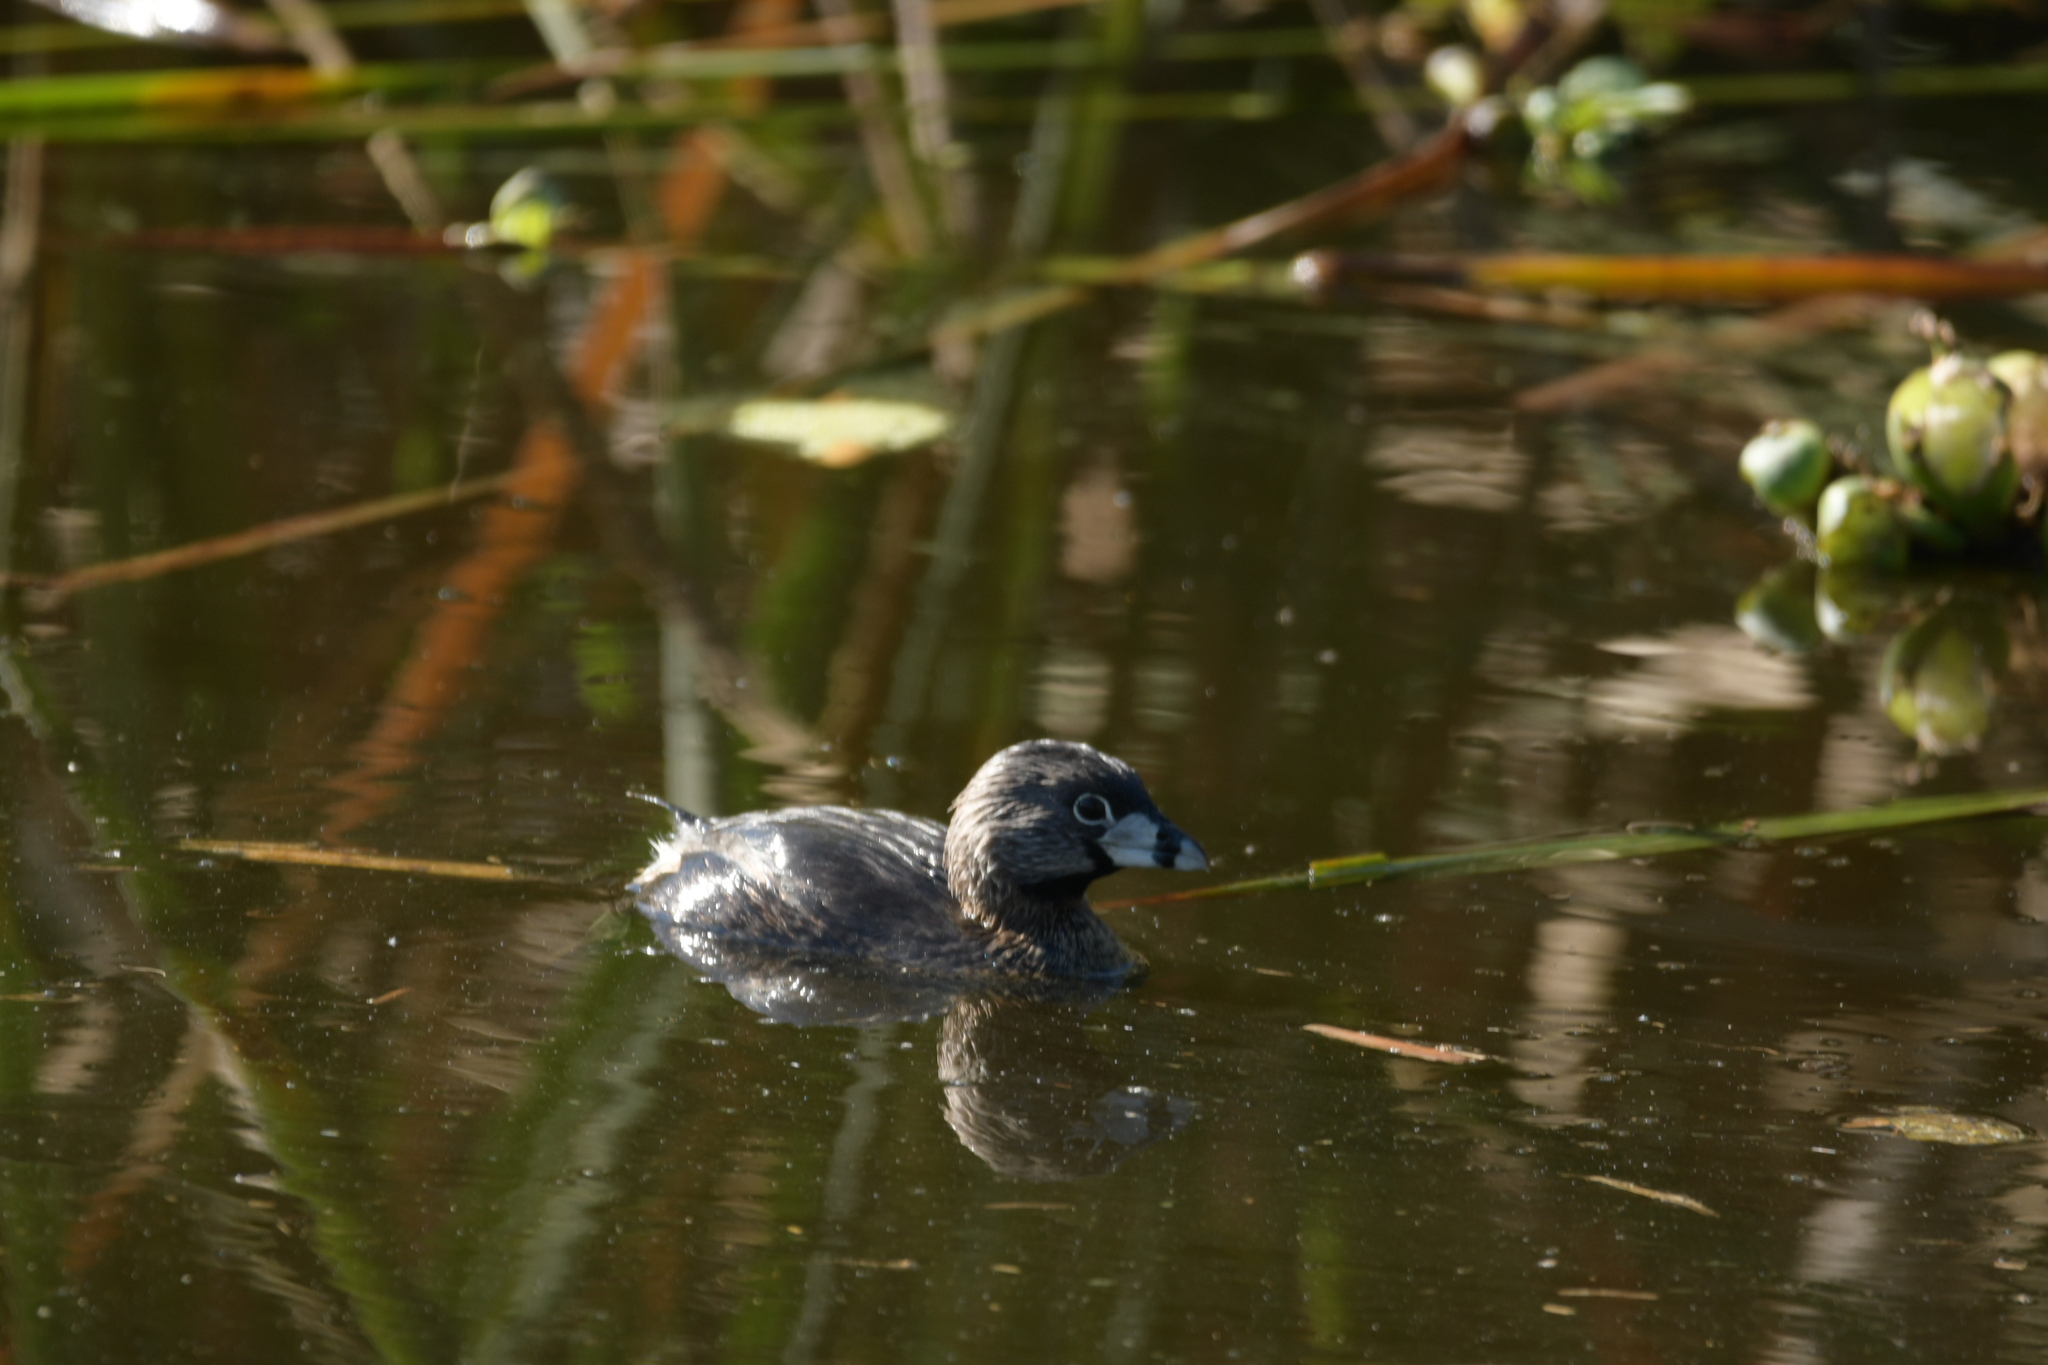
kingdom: Animalia
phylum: Chordata
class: Aves
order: Podicipediformes
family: Podicipedidae
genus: Podilymbus
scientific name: Podilymbus podiceps
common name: Pied-billed grebe
